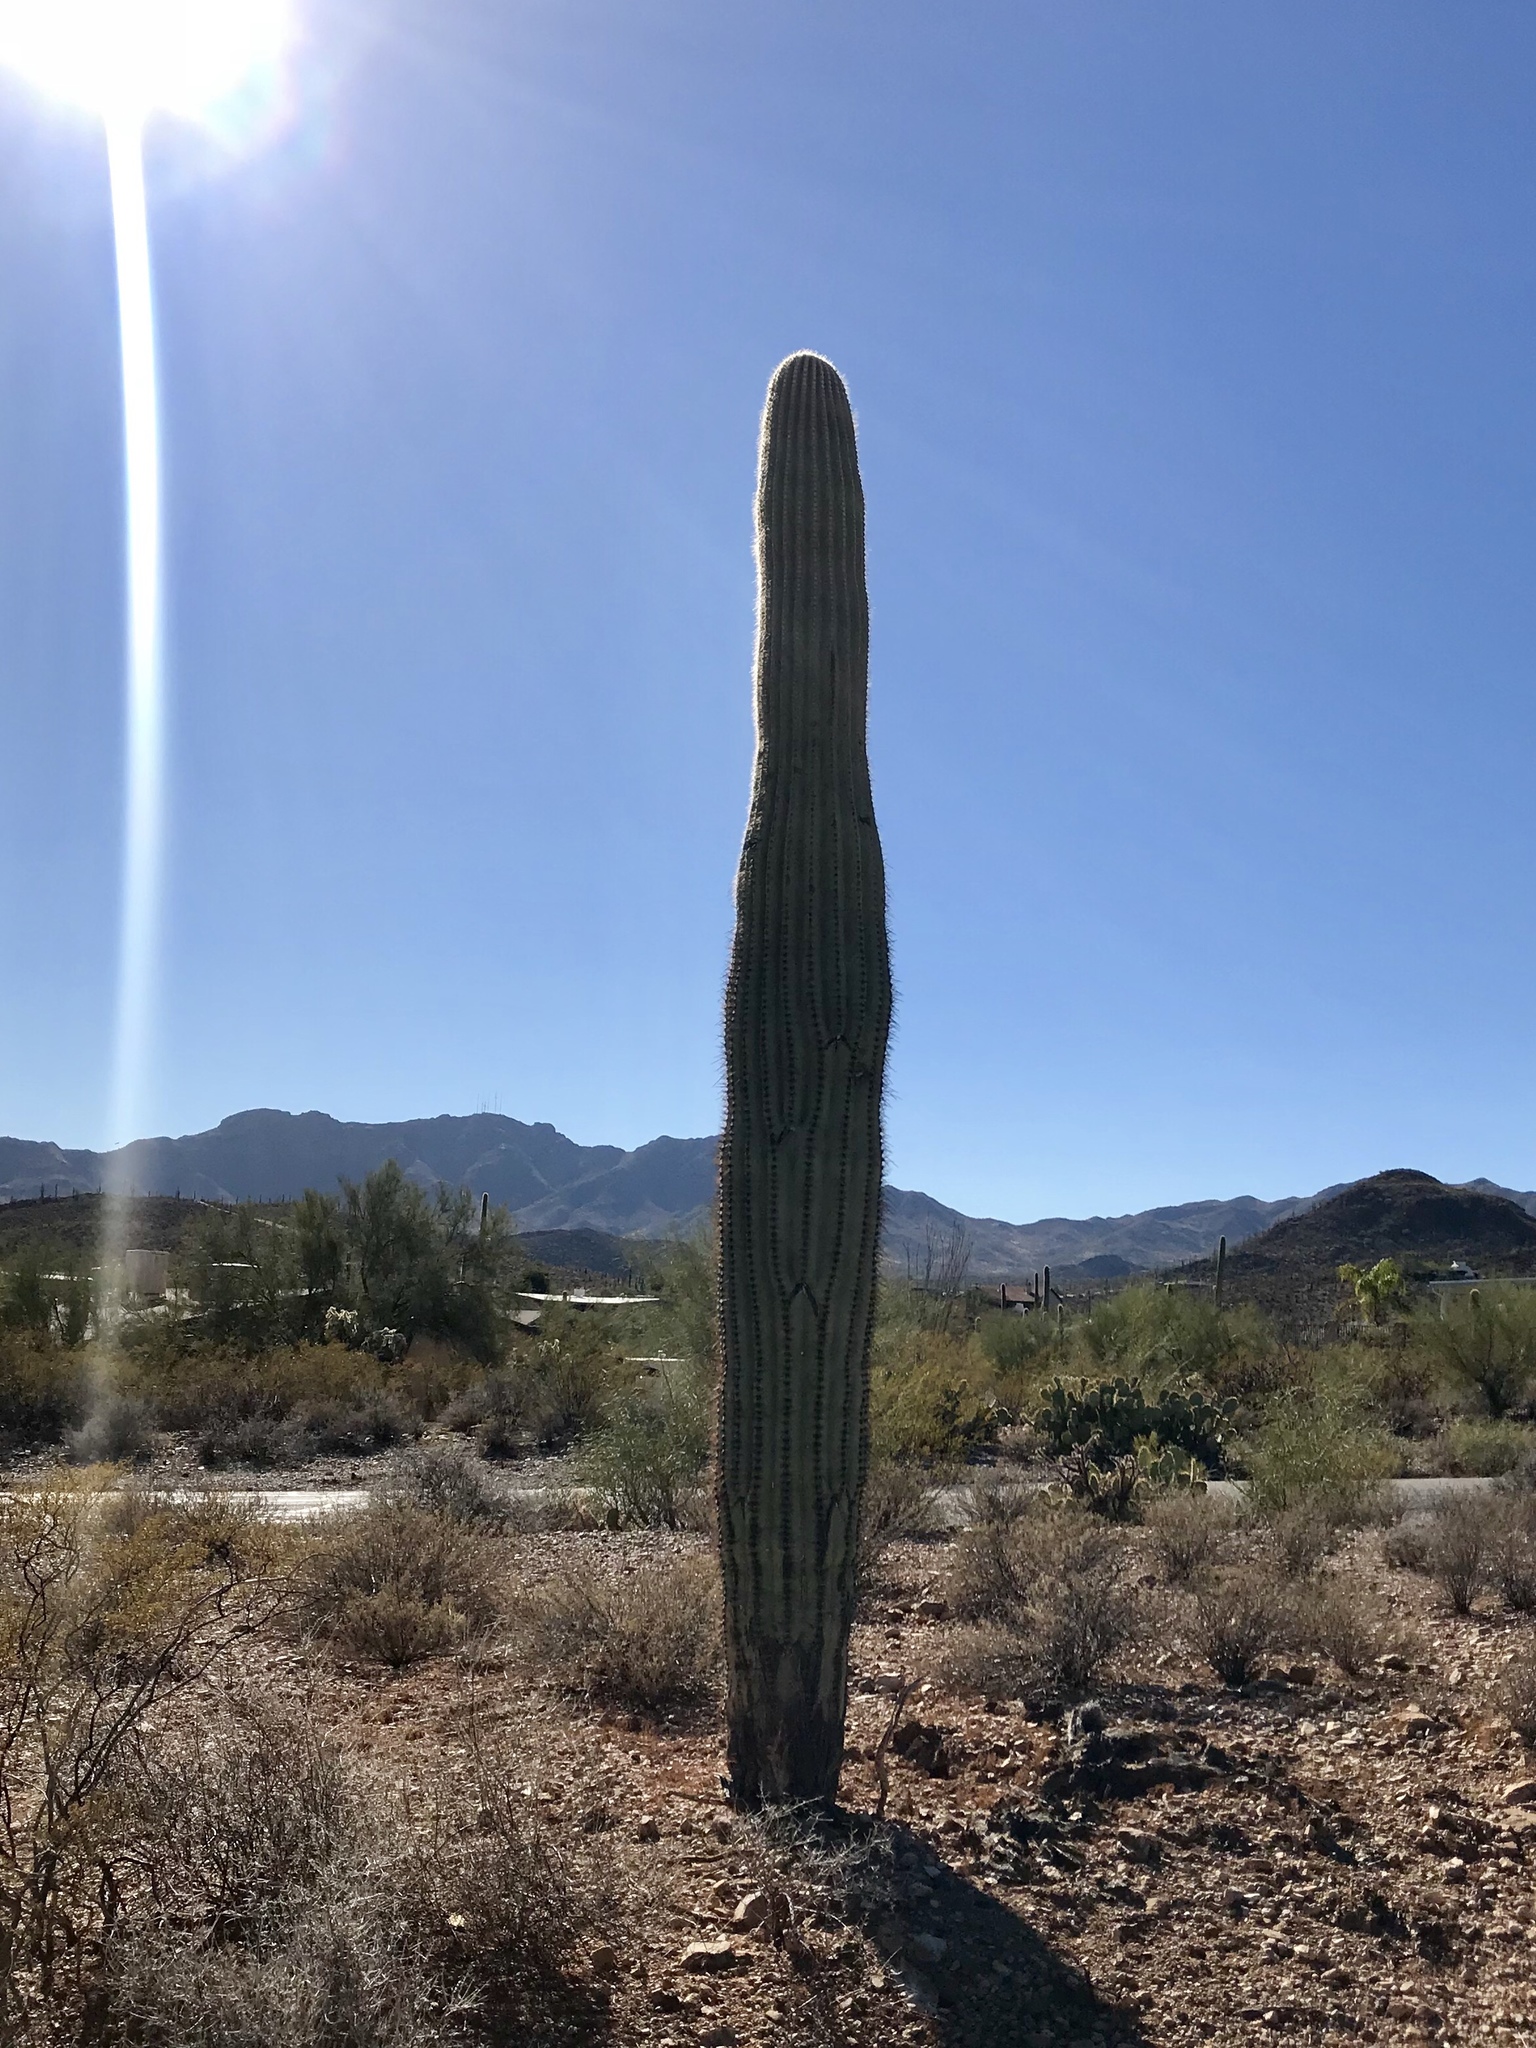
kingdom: Plantae
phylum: Tracheophyta
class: Magnoliopsida
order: Caryophyllales
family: Cactaceae
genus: Carnegiea
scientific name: Carnegiea gigantea
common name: Saguaro
